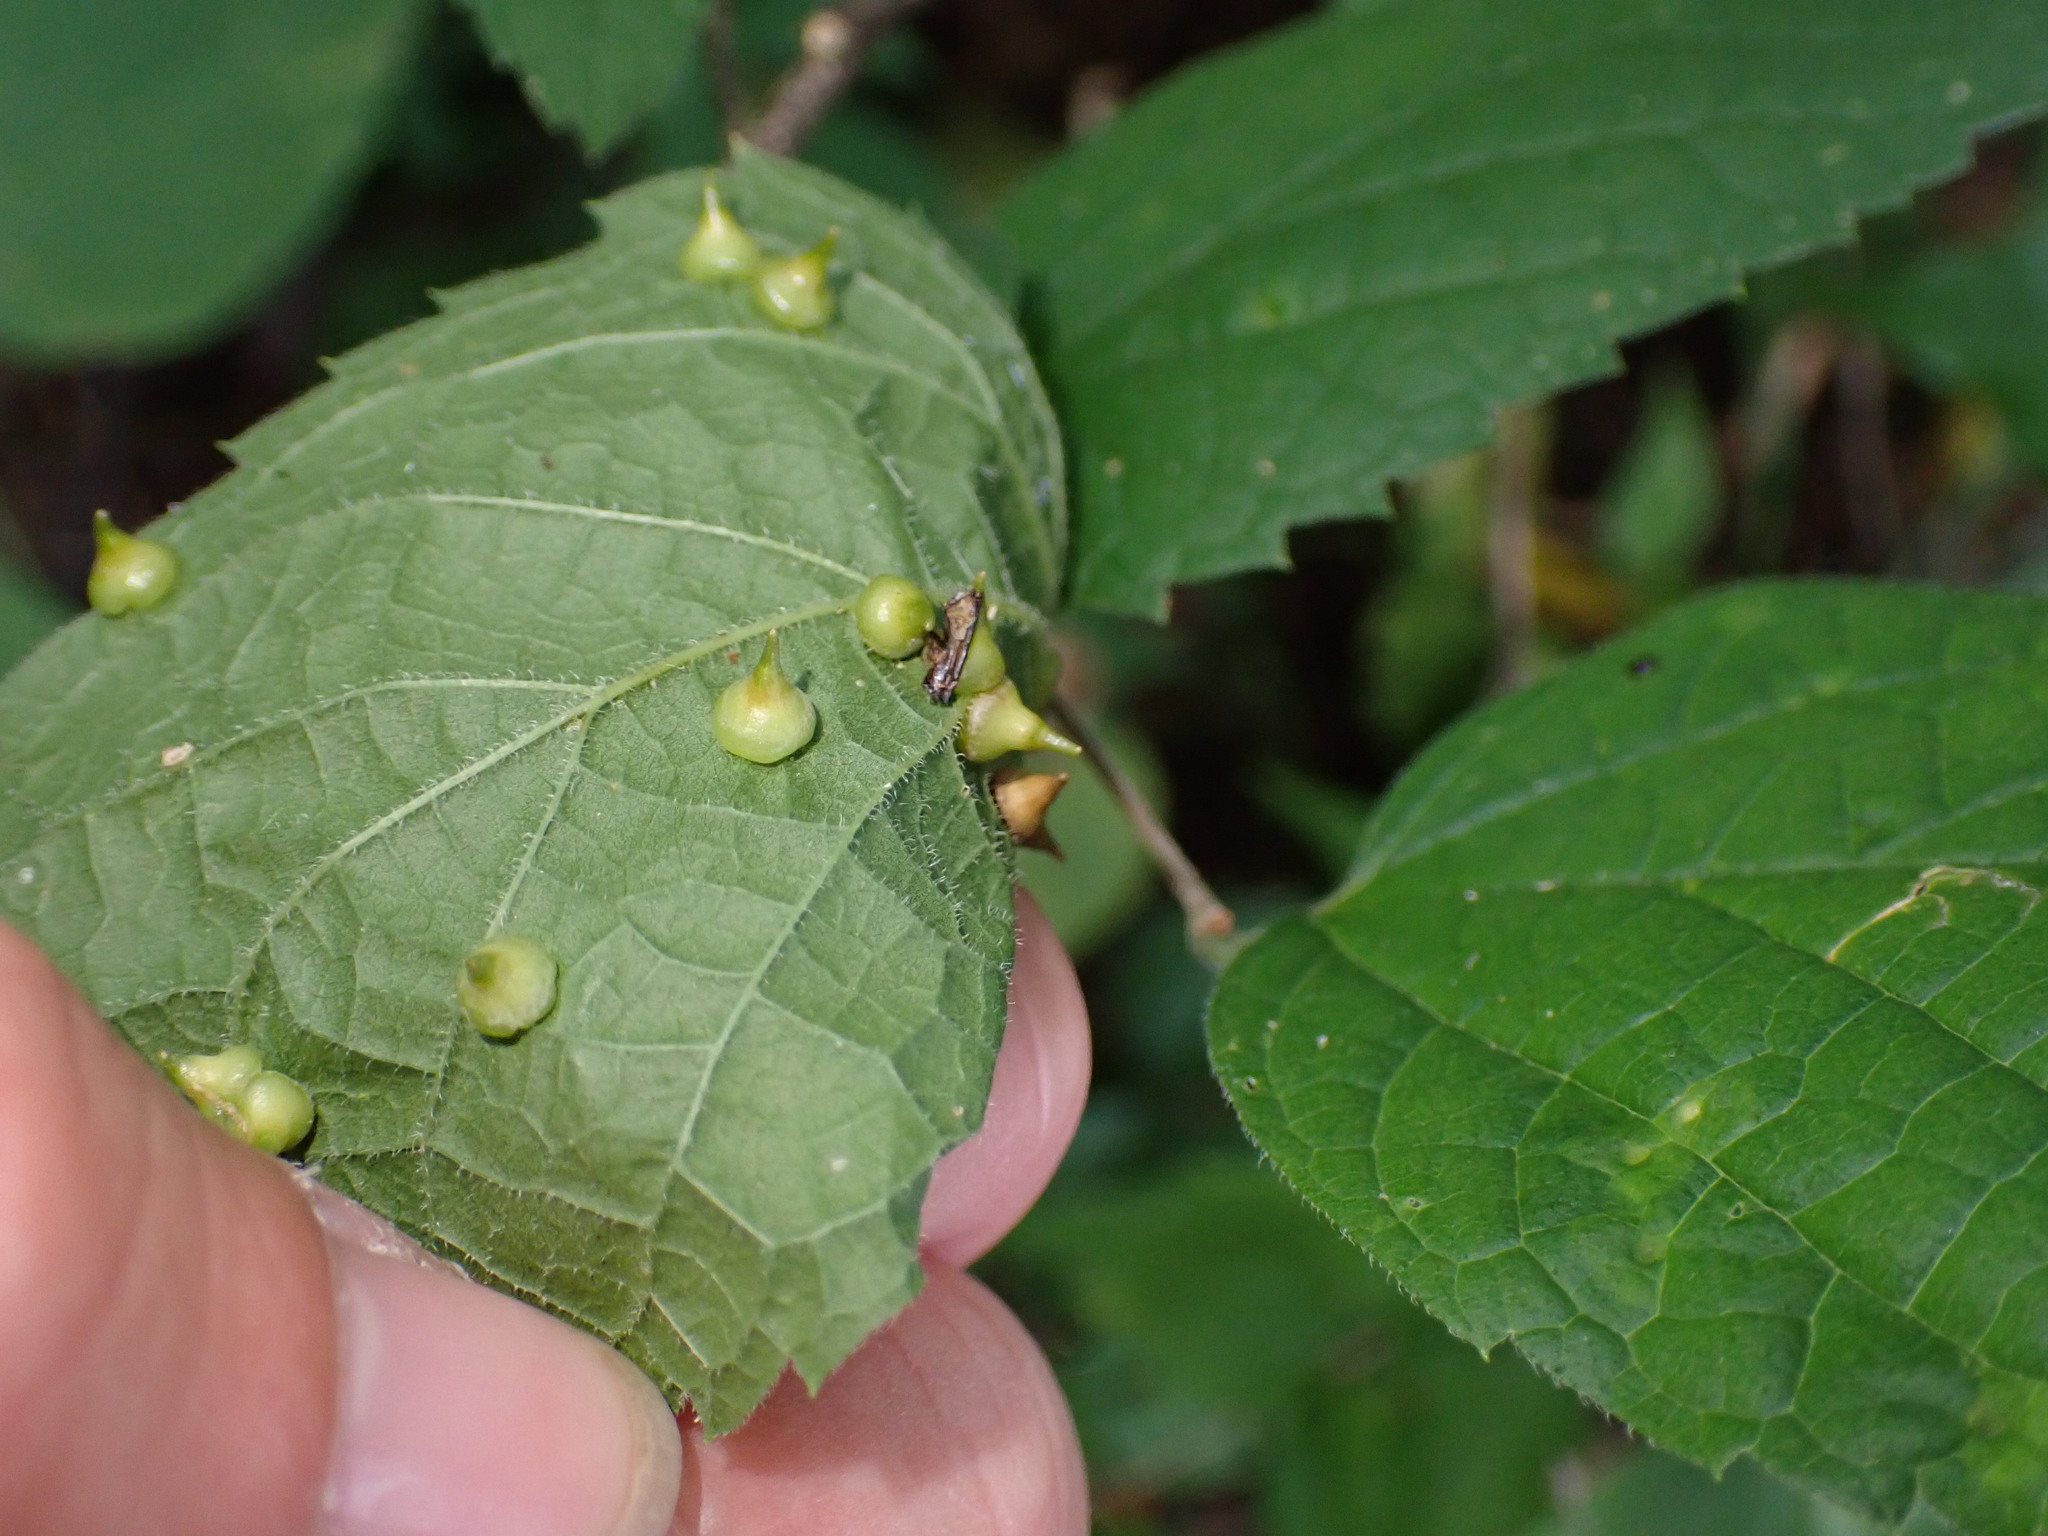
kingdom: Animalia
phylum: Arthropoda
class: Insecta
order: Diptera
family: Cecidomyiidae
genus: Celticecis
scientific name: Celticecis spiniformis
